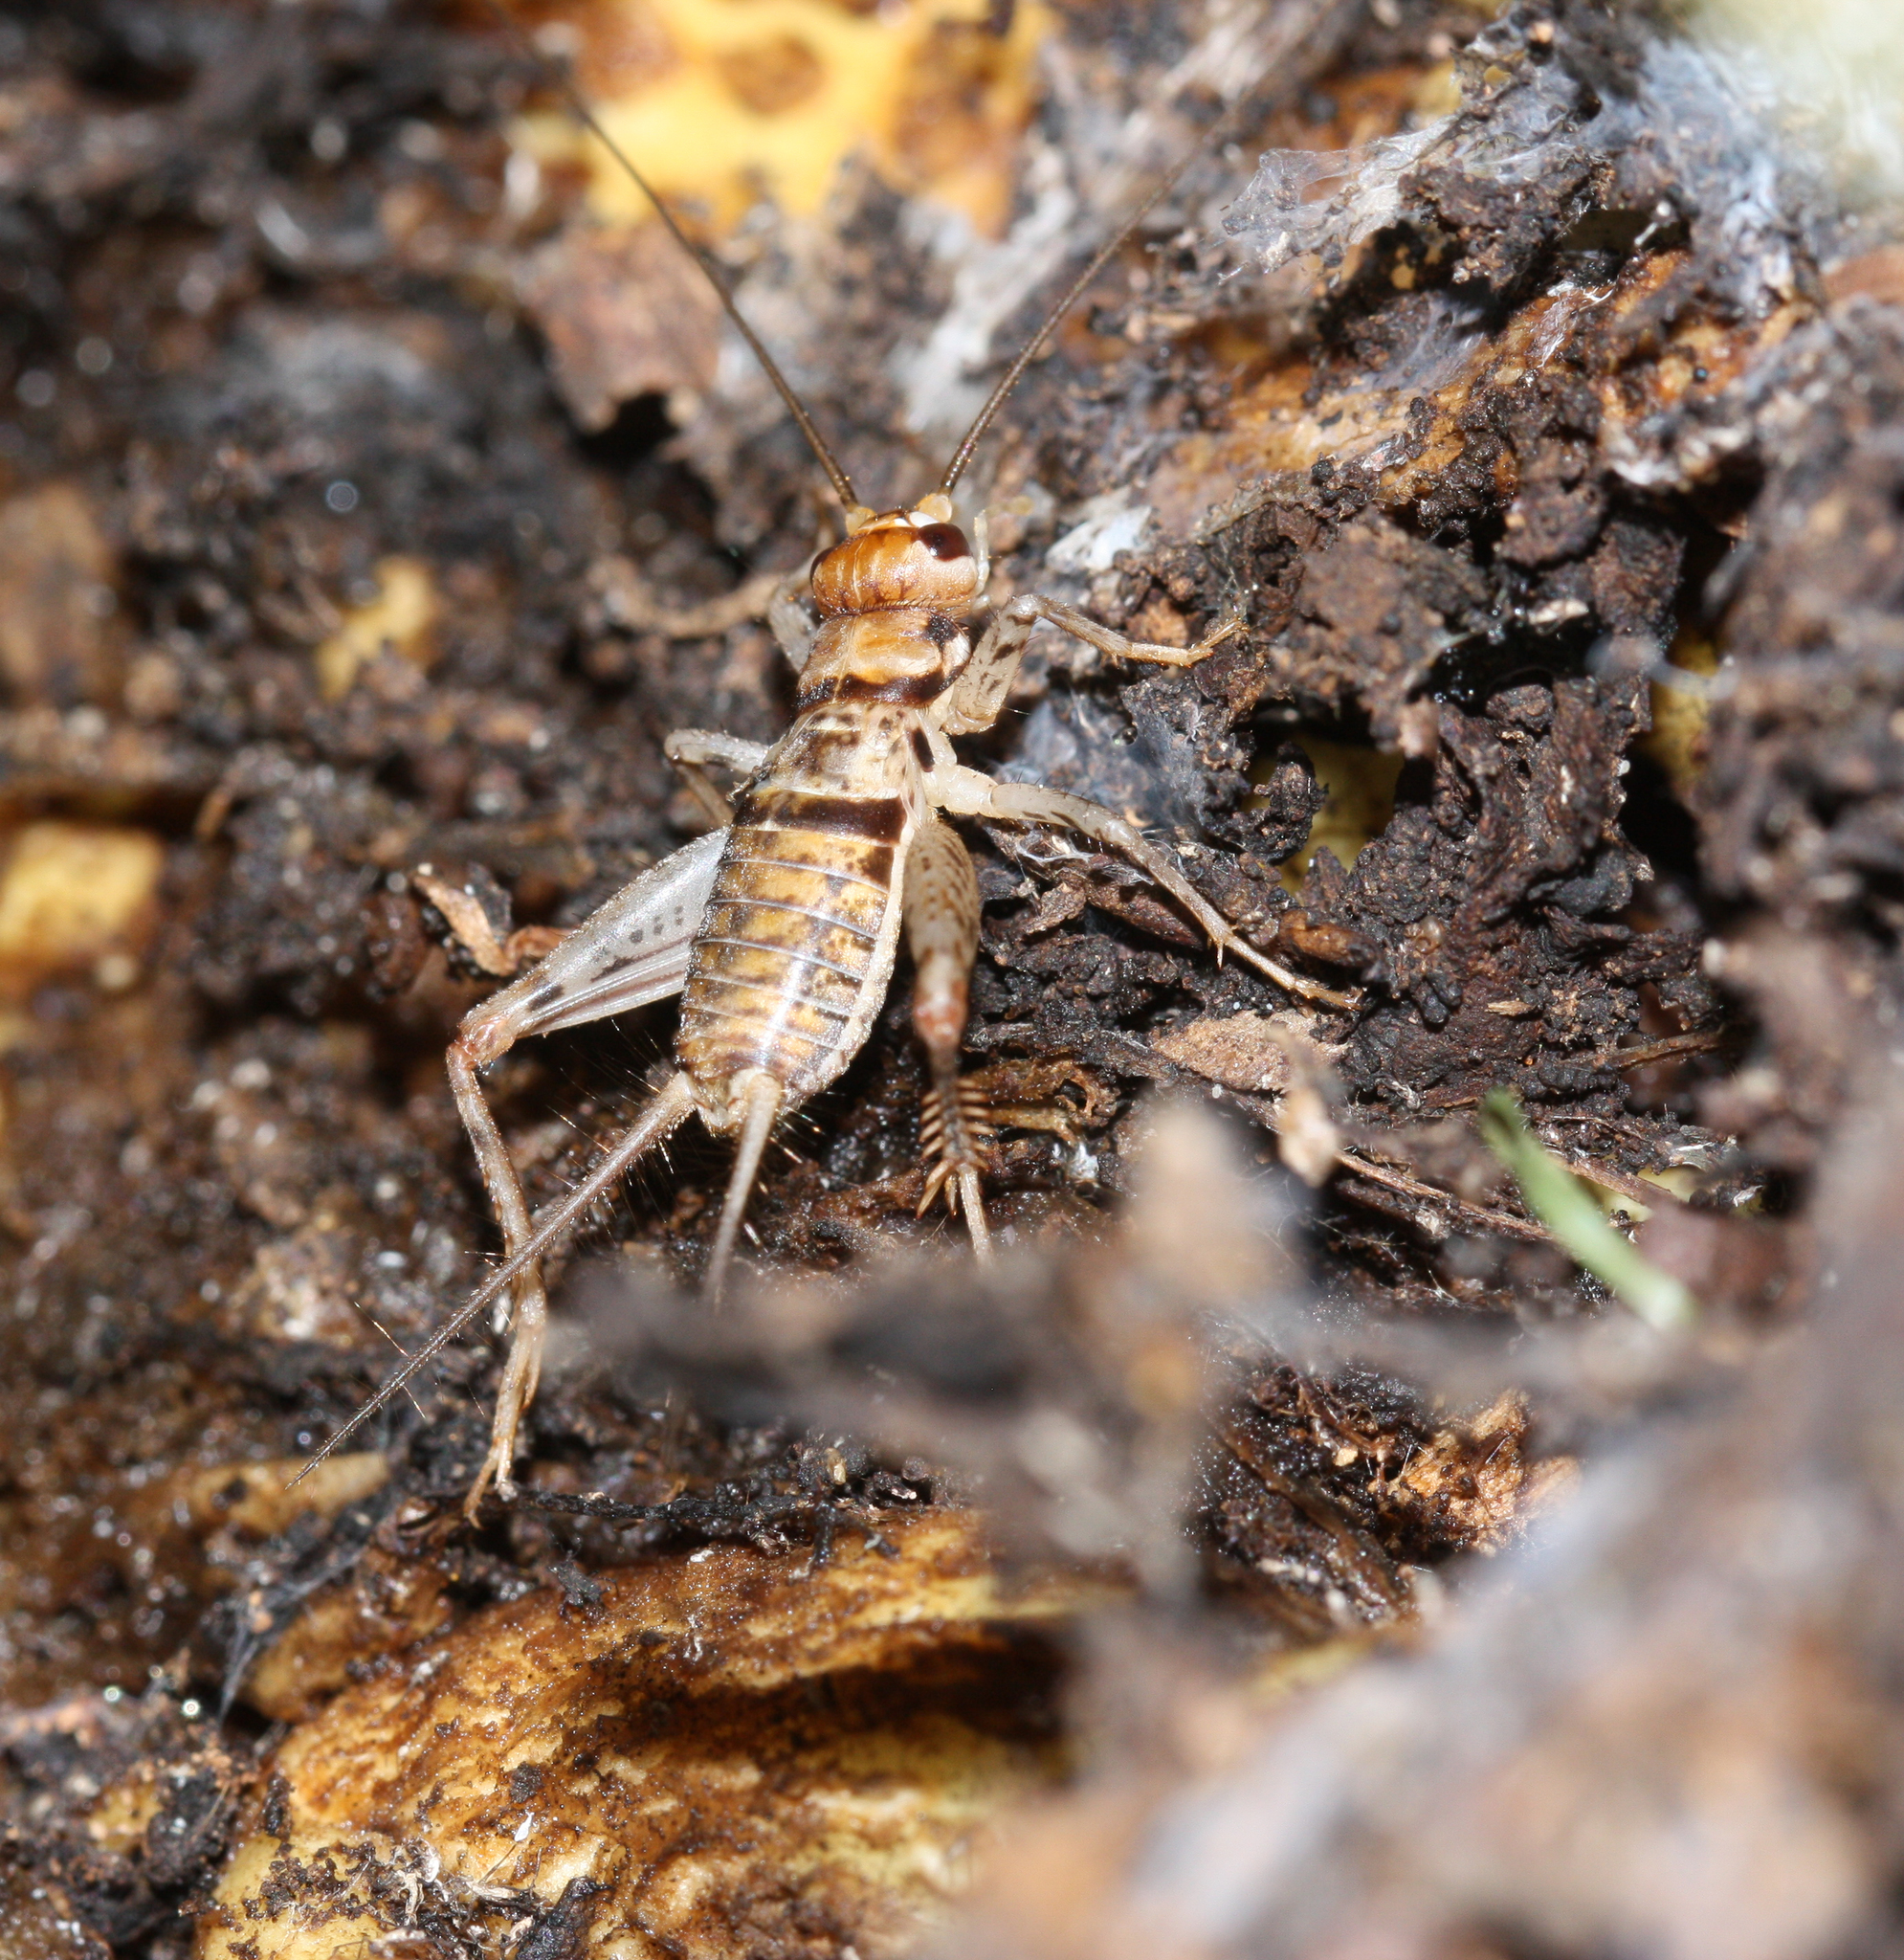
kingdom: Animalia
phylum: Arthropoda
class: Insecta
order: Orthoptera
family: Gryllidae
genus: Gryllodes
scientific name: Gryllodes sigillatus
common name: Tropical house cricket
